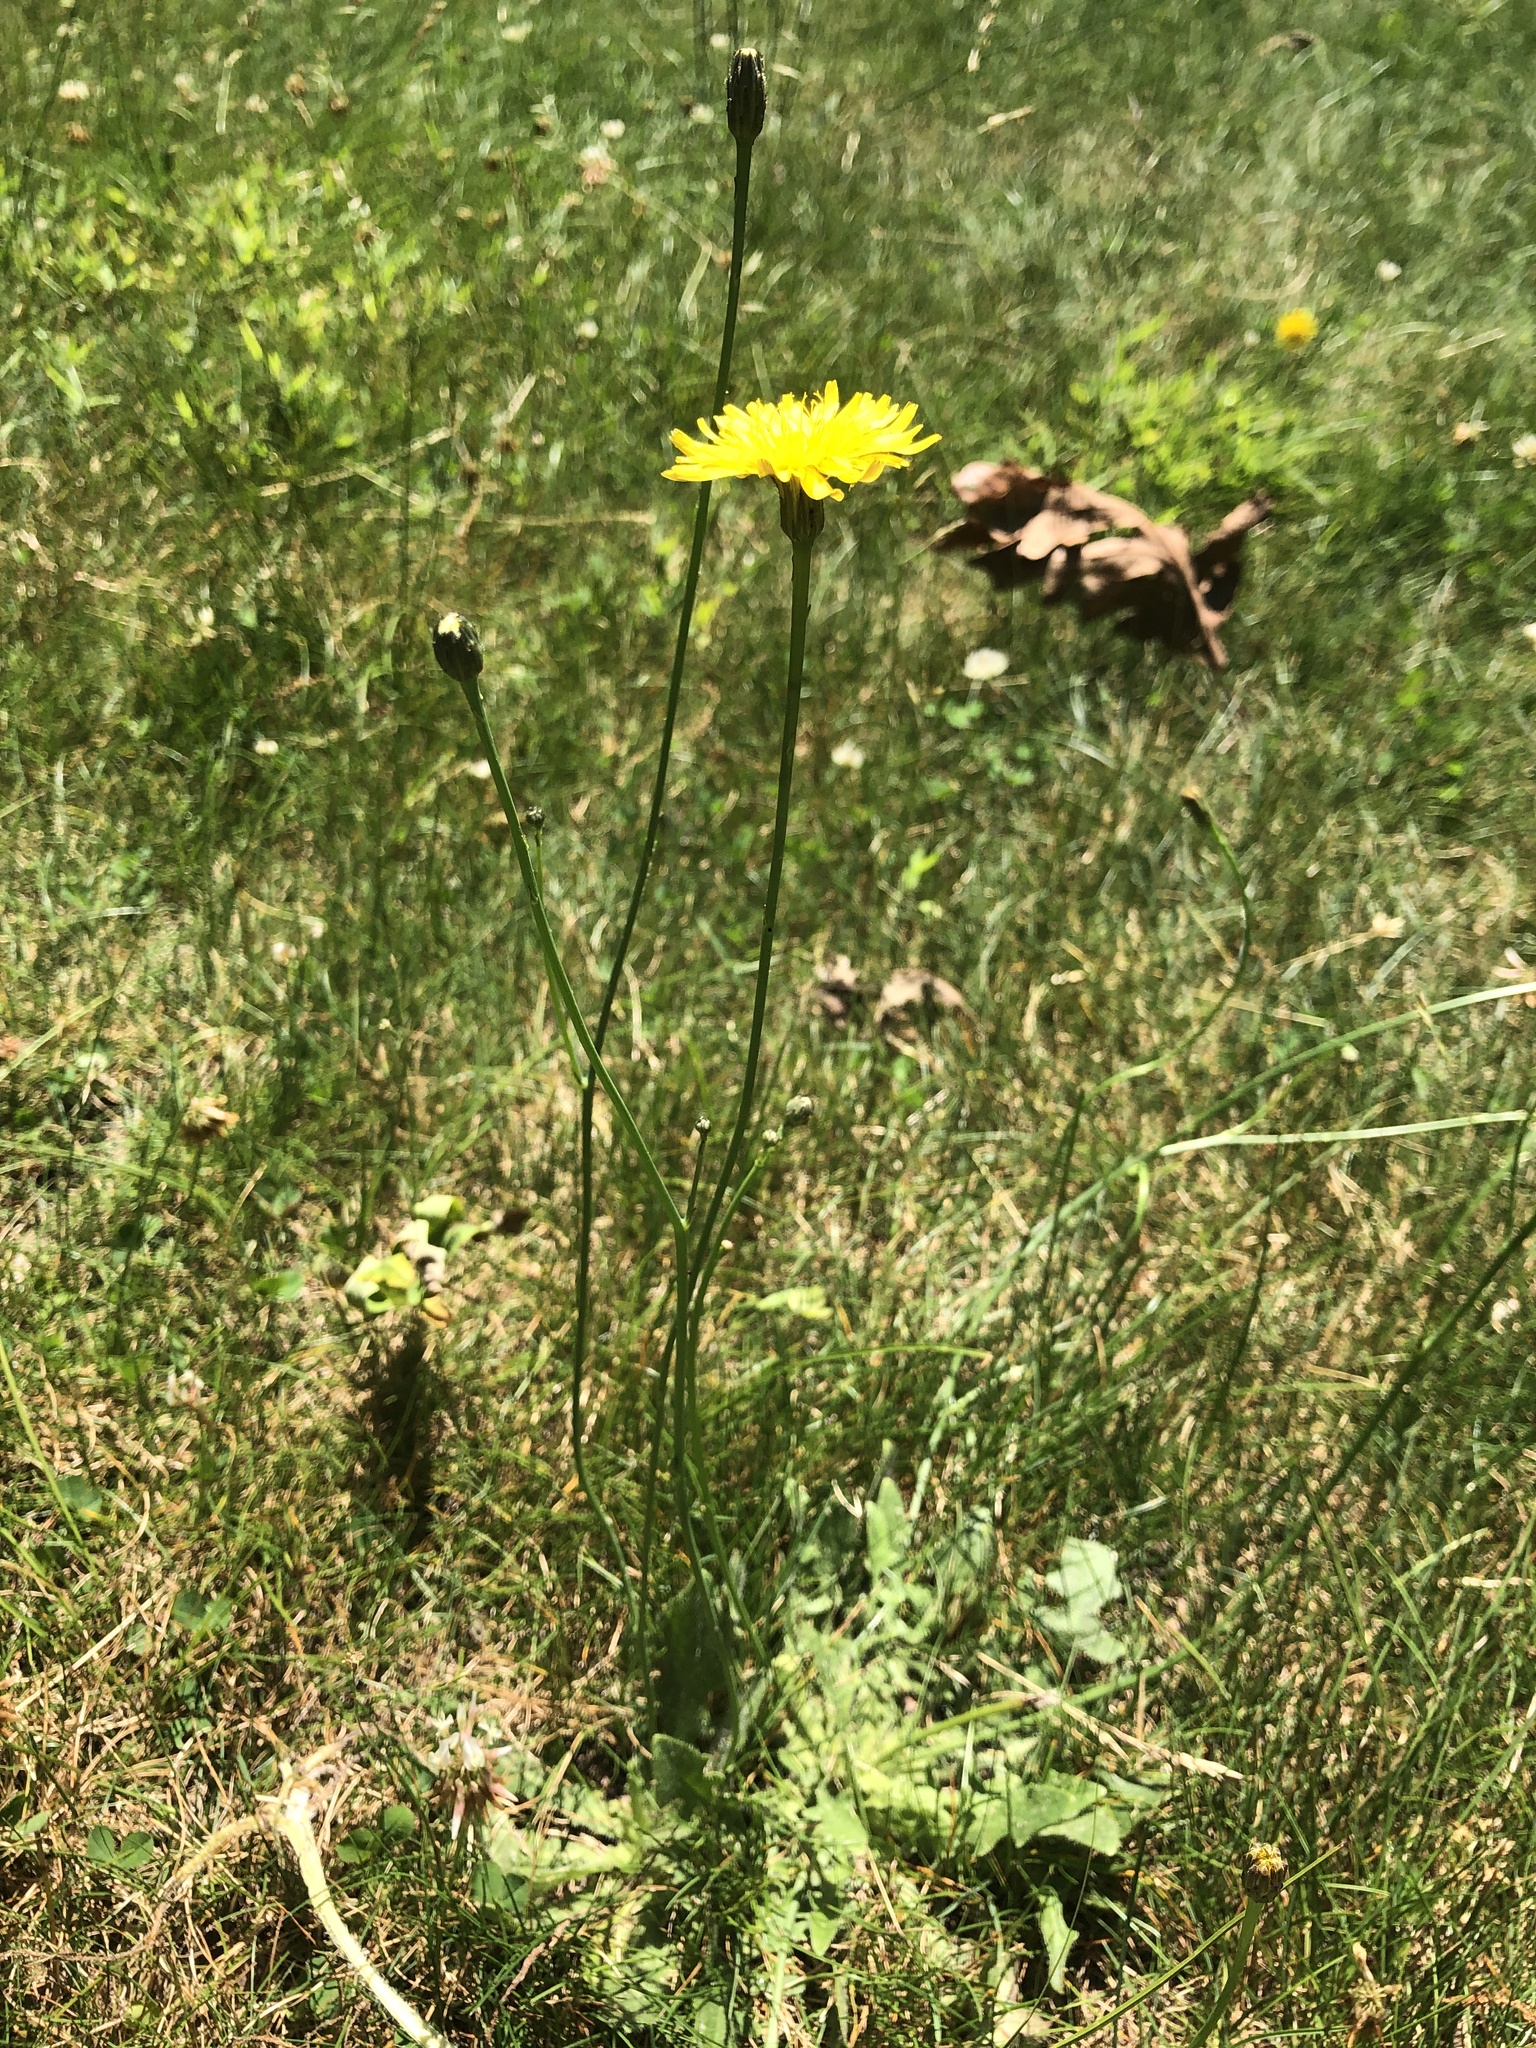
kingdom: Plantae
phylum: Tracheophyta
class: Magnoliopsida
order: Asterales
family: Asteraceae
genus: Hypochaeris
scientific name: Hypochaeris radicata
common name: Flatweed
